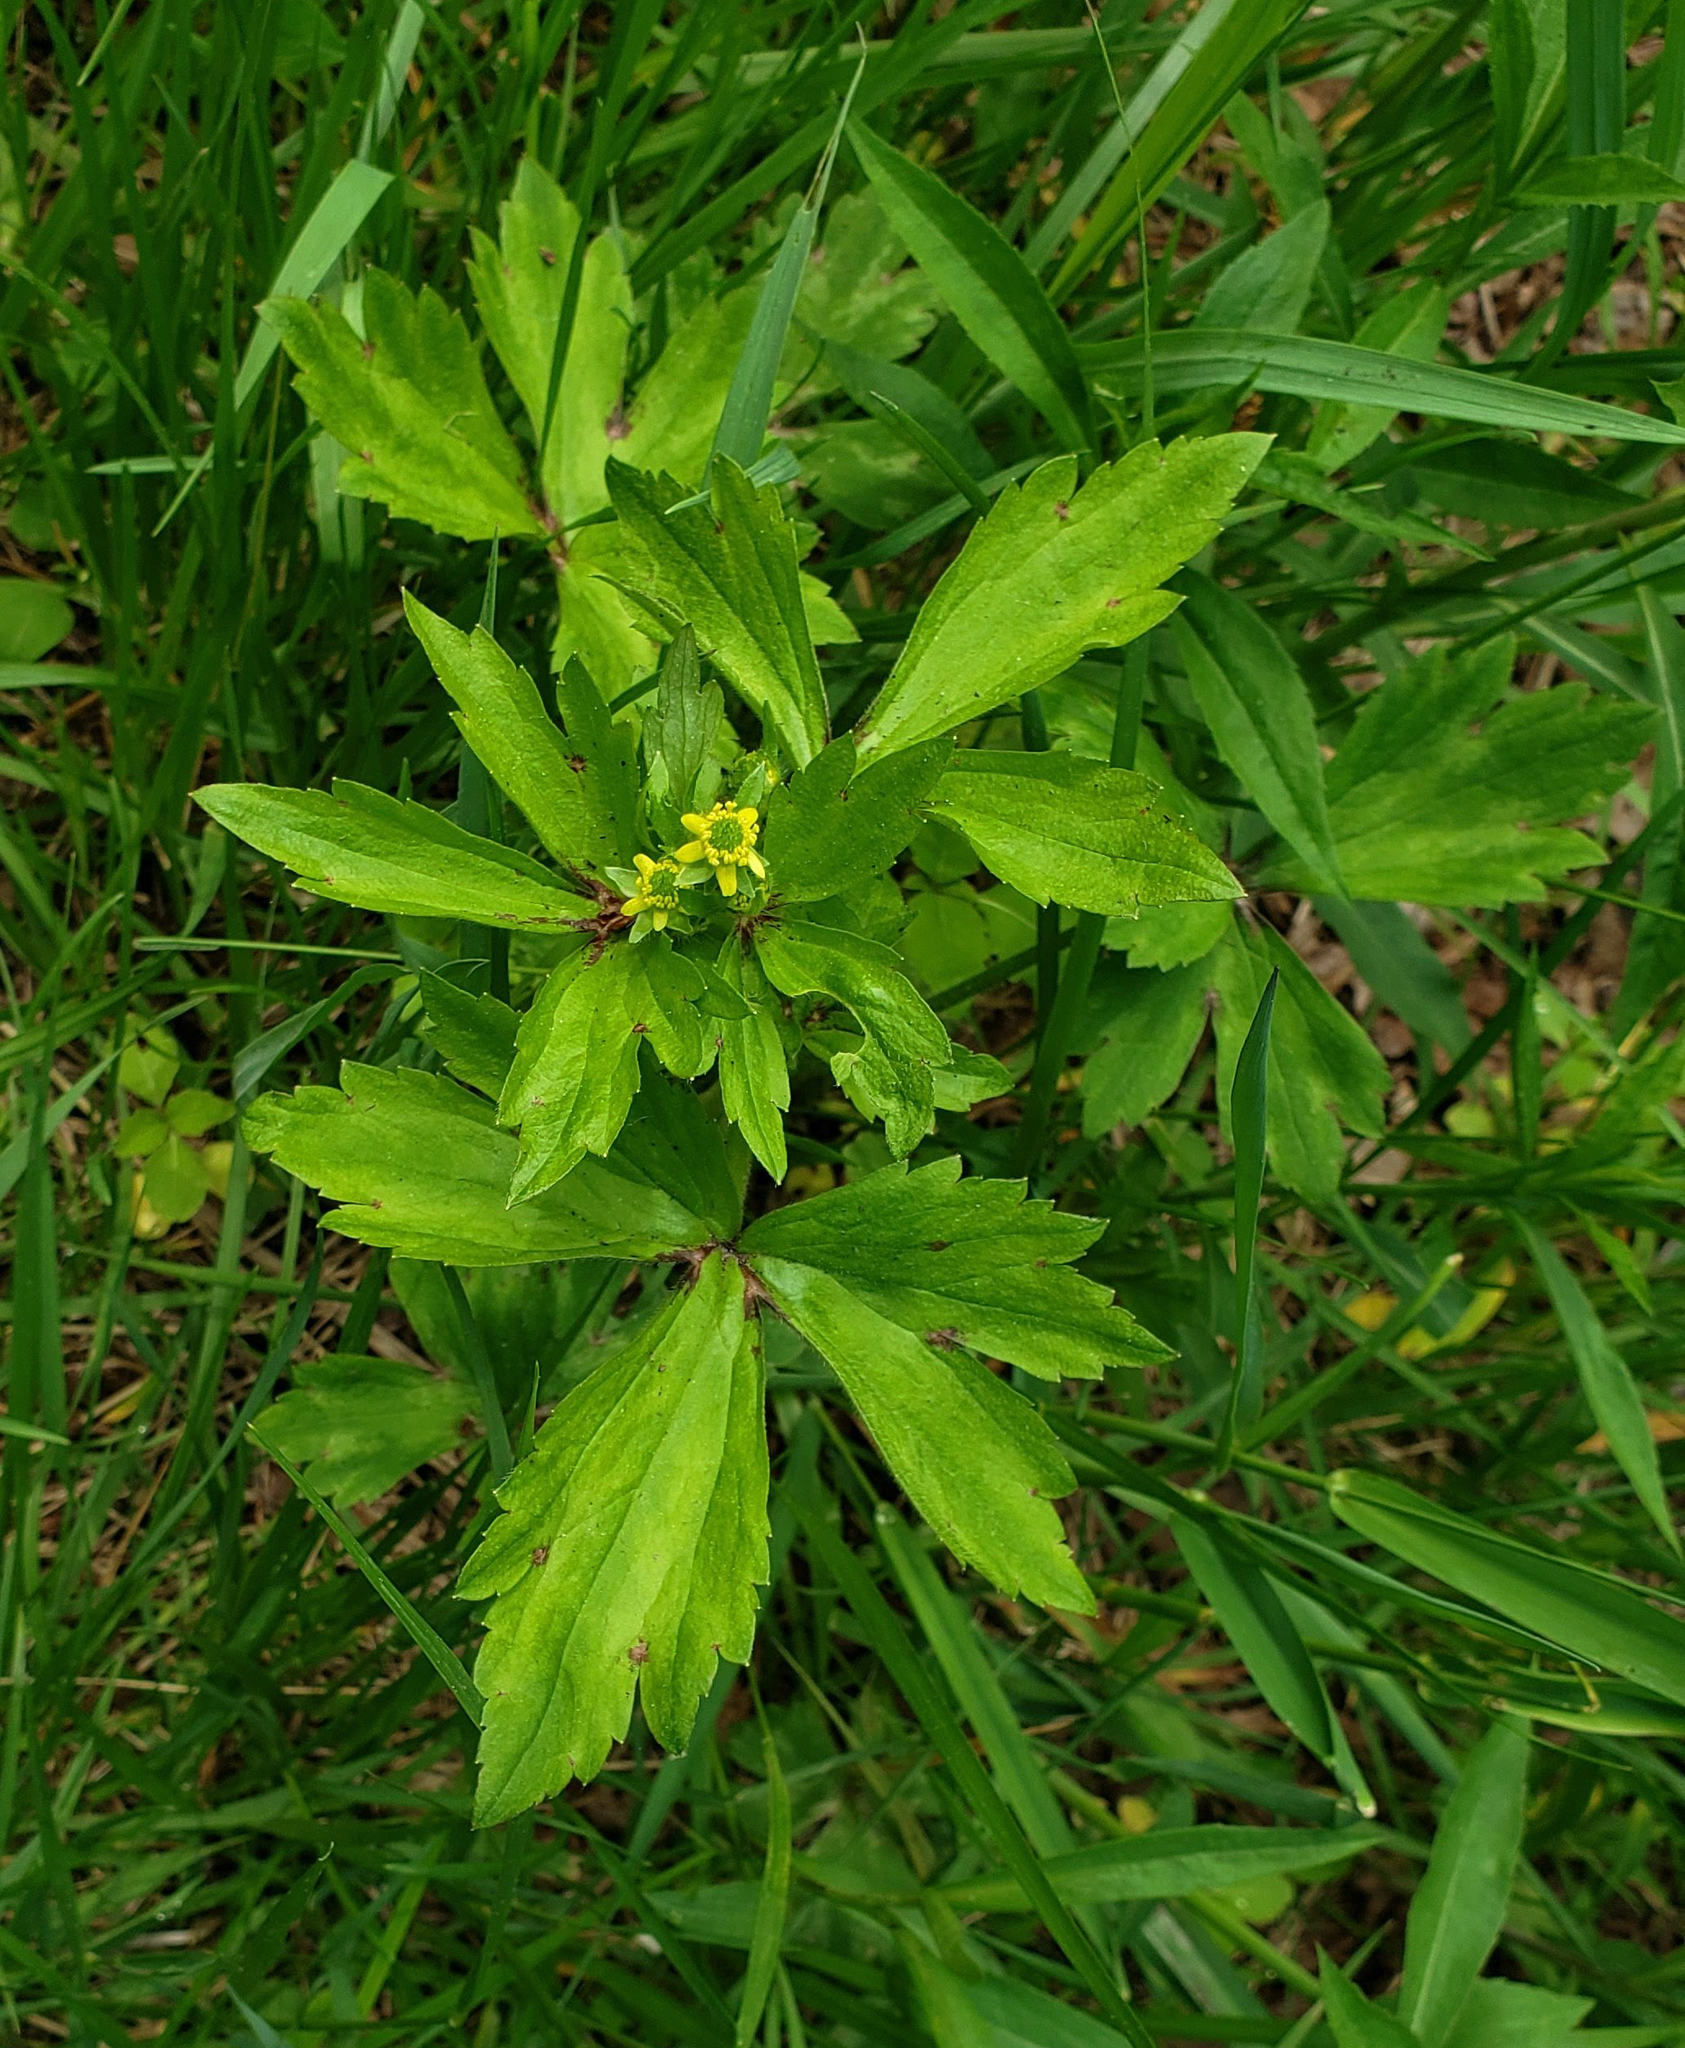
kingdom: Plantae
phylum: Tracheophyta
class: Magnoliopsida
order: Ranunculales
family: Ranunculaceae
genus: Ranunculus
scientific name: Ranunculus recurvatus
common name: Blisterwort
